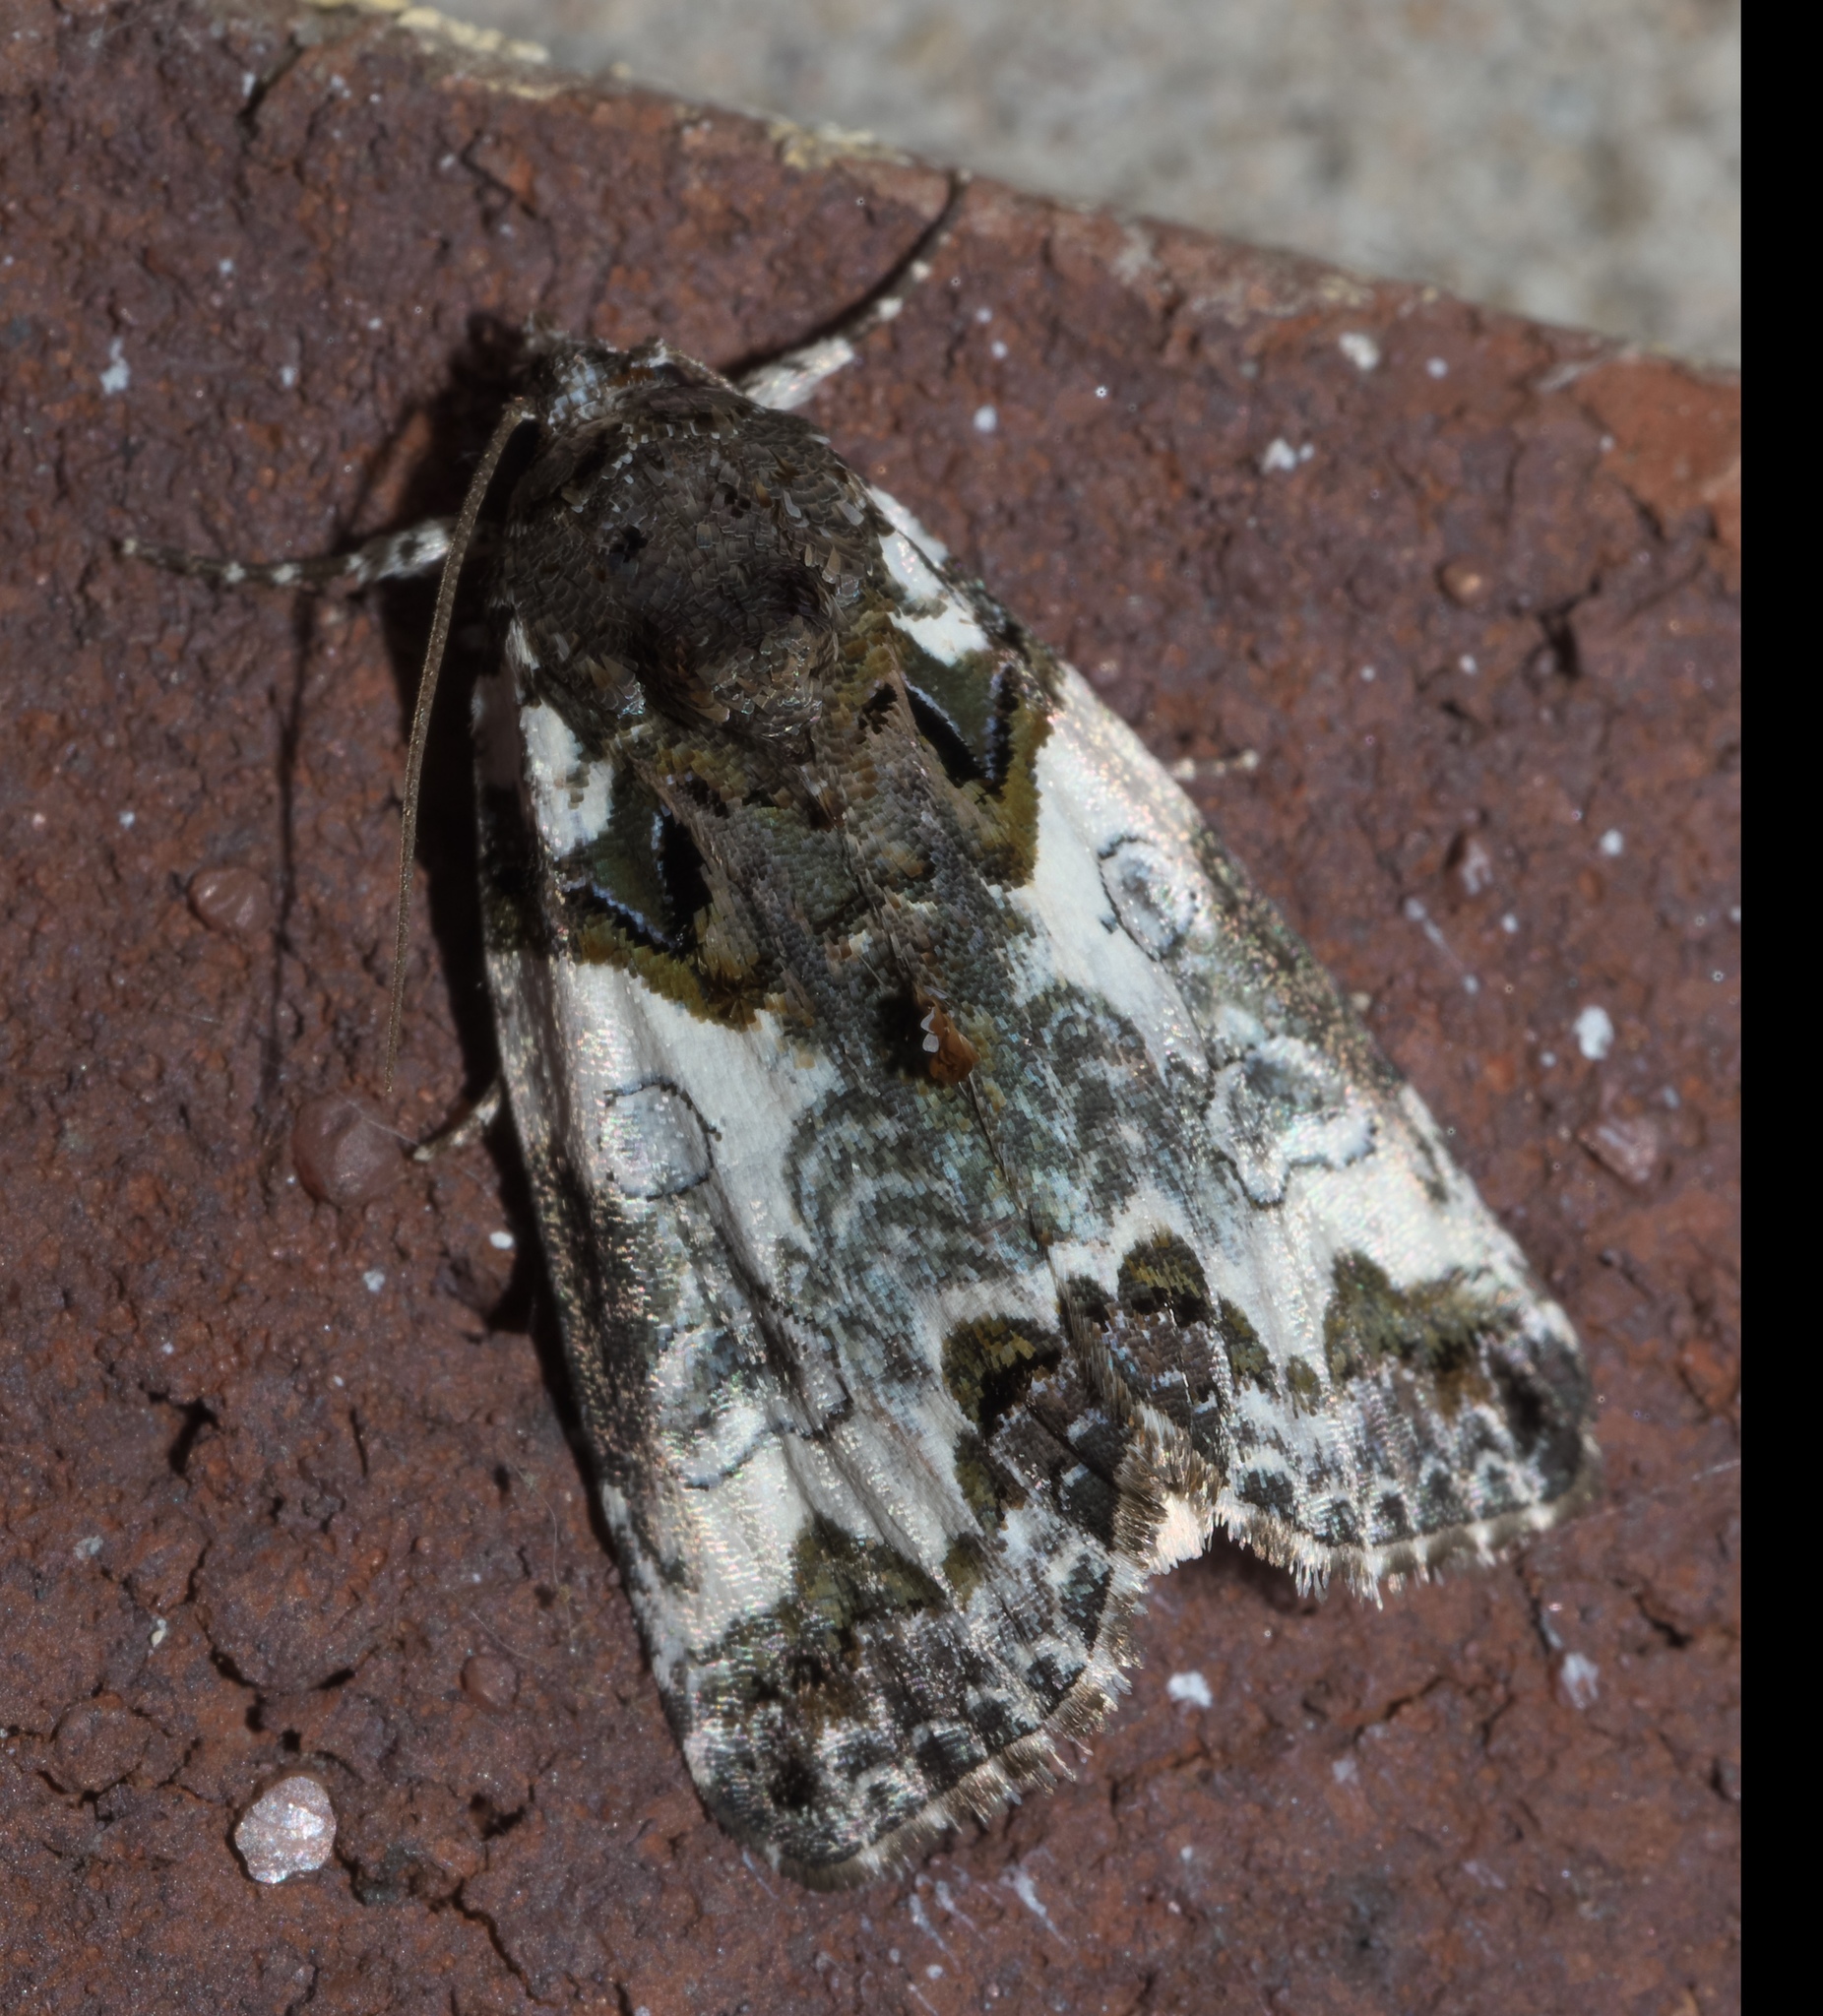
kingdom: Animalia
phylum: Arthropoda
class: Insecta
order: Lepidoptera
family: Noctuidae
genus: Cerma
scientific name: Cerma cerintha
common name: Tufted bird-dropping moth
